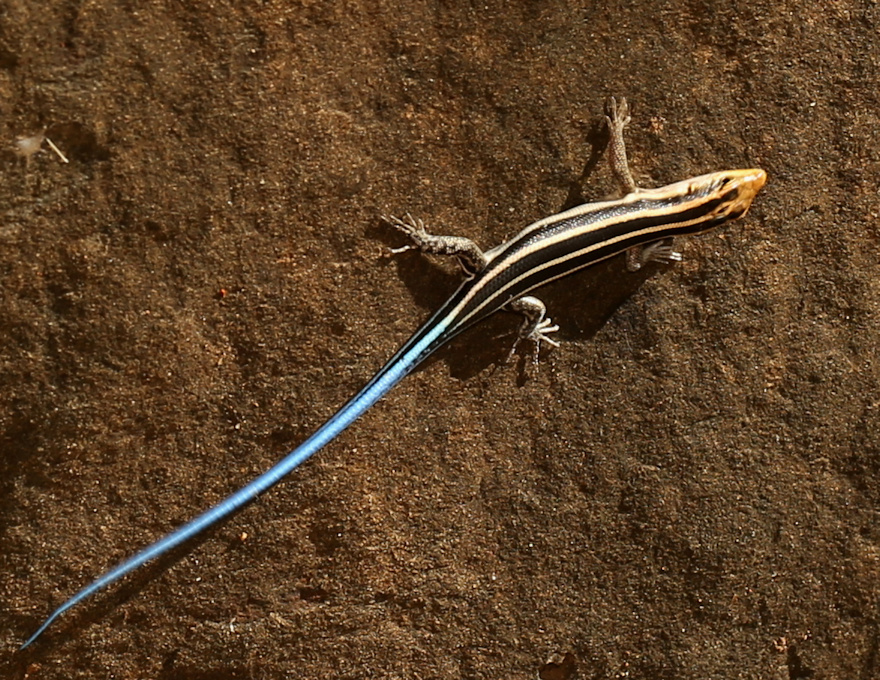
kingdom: Animalia
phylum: Chordata
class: Squamata
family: Scincidae
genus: Trachylepis
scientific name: Trachylepis margaritifera
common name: Rainbow skink
